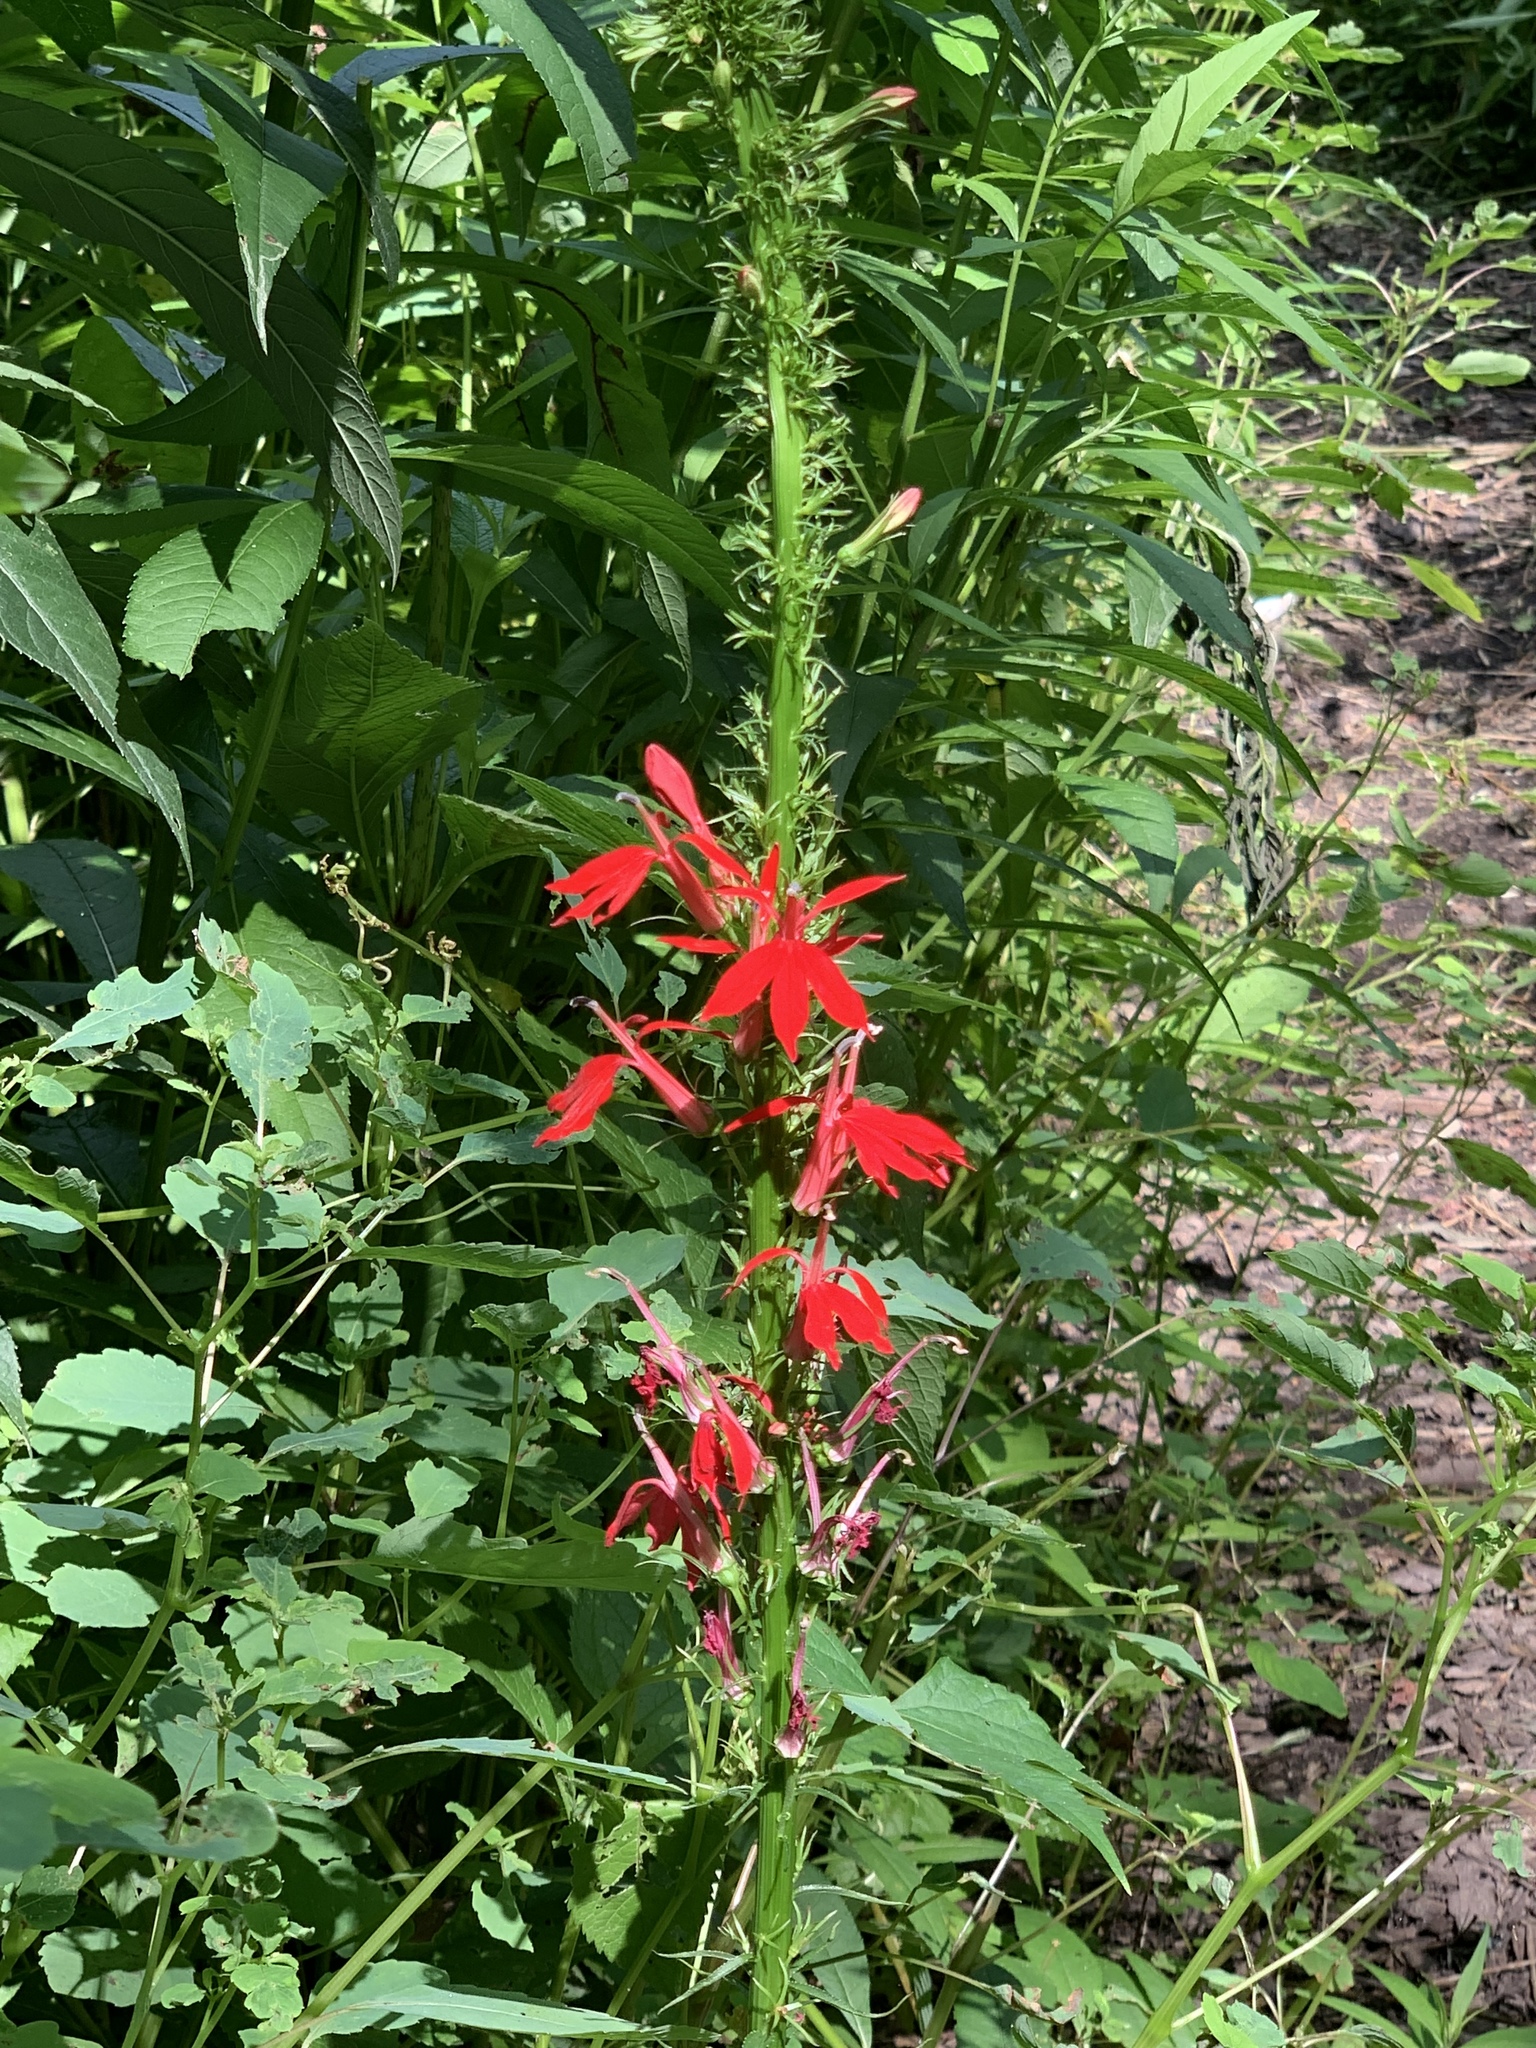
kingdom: Plantae
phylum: Tracheophyta
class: Magnoliopsida
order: Asterales
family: Campanulaceae
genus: Lobelia
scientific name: Lobelia cardinalis
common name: Cardinal flower
